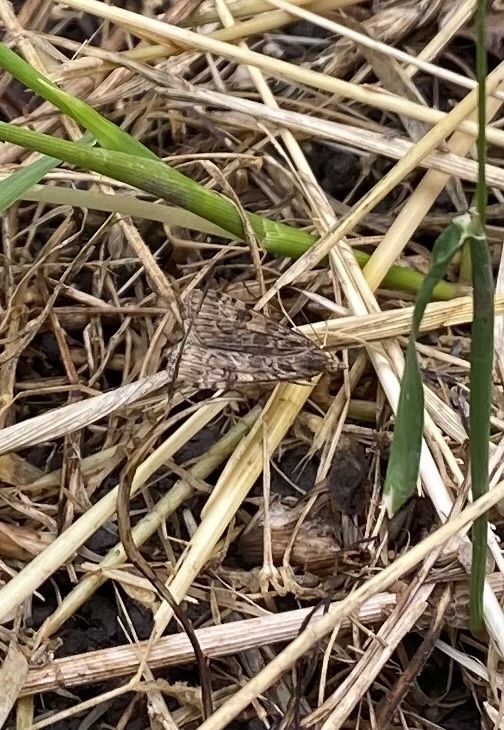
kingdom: Animalia
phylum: Arthropoda
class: Insecta
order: Lepidoptera
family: Crambidae
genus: Nomophila
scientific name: Nomophila noctuella
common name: Rush veneer
